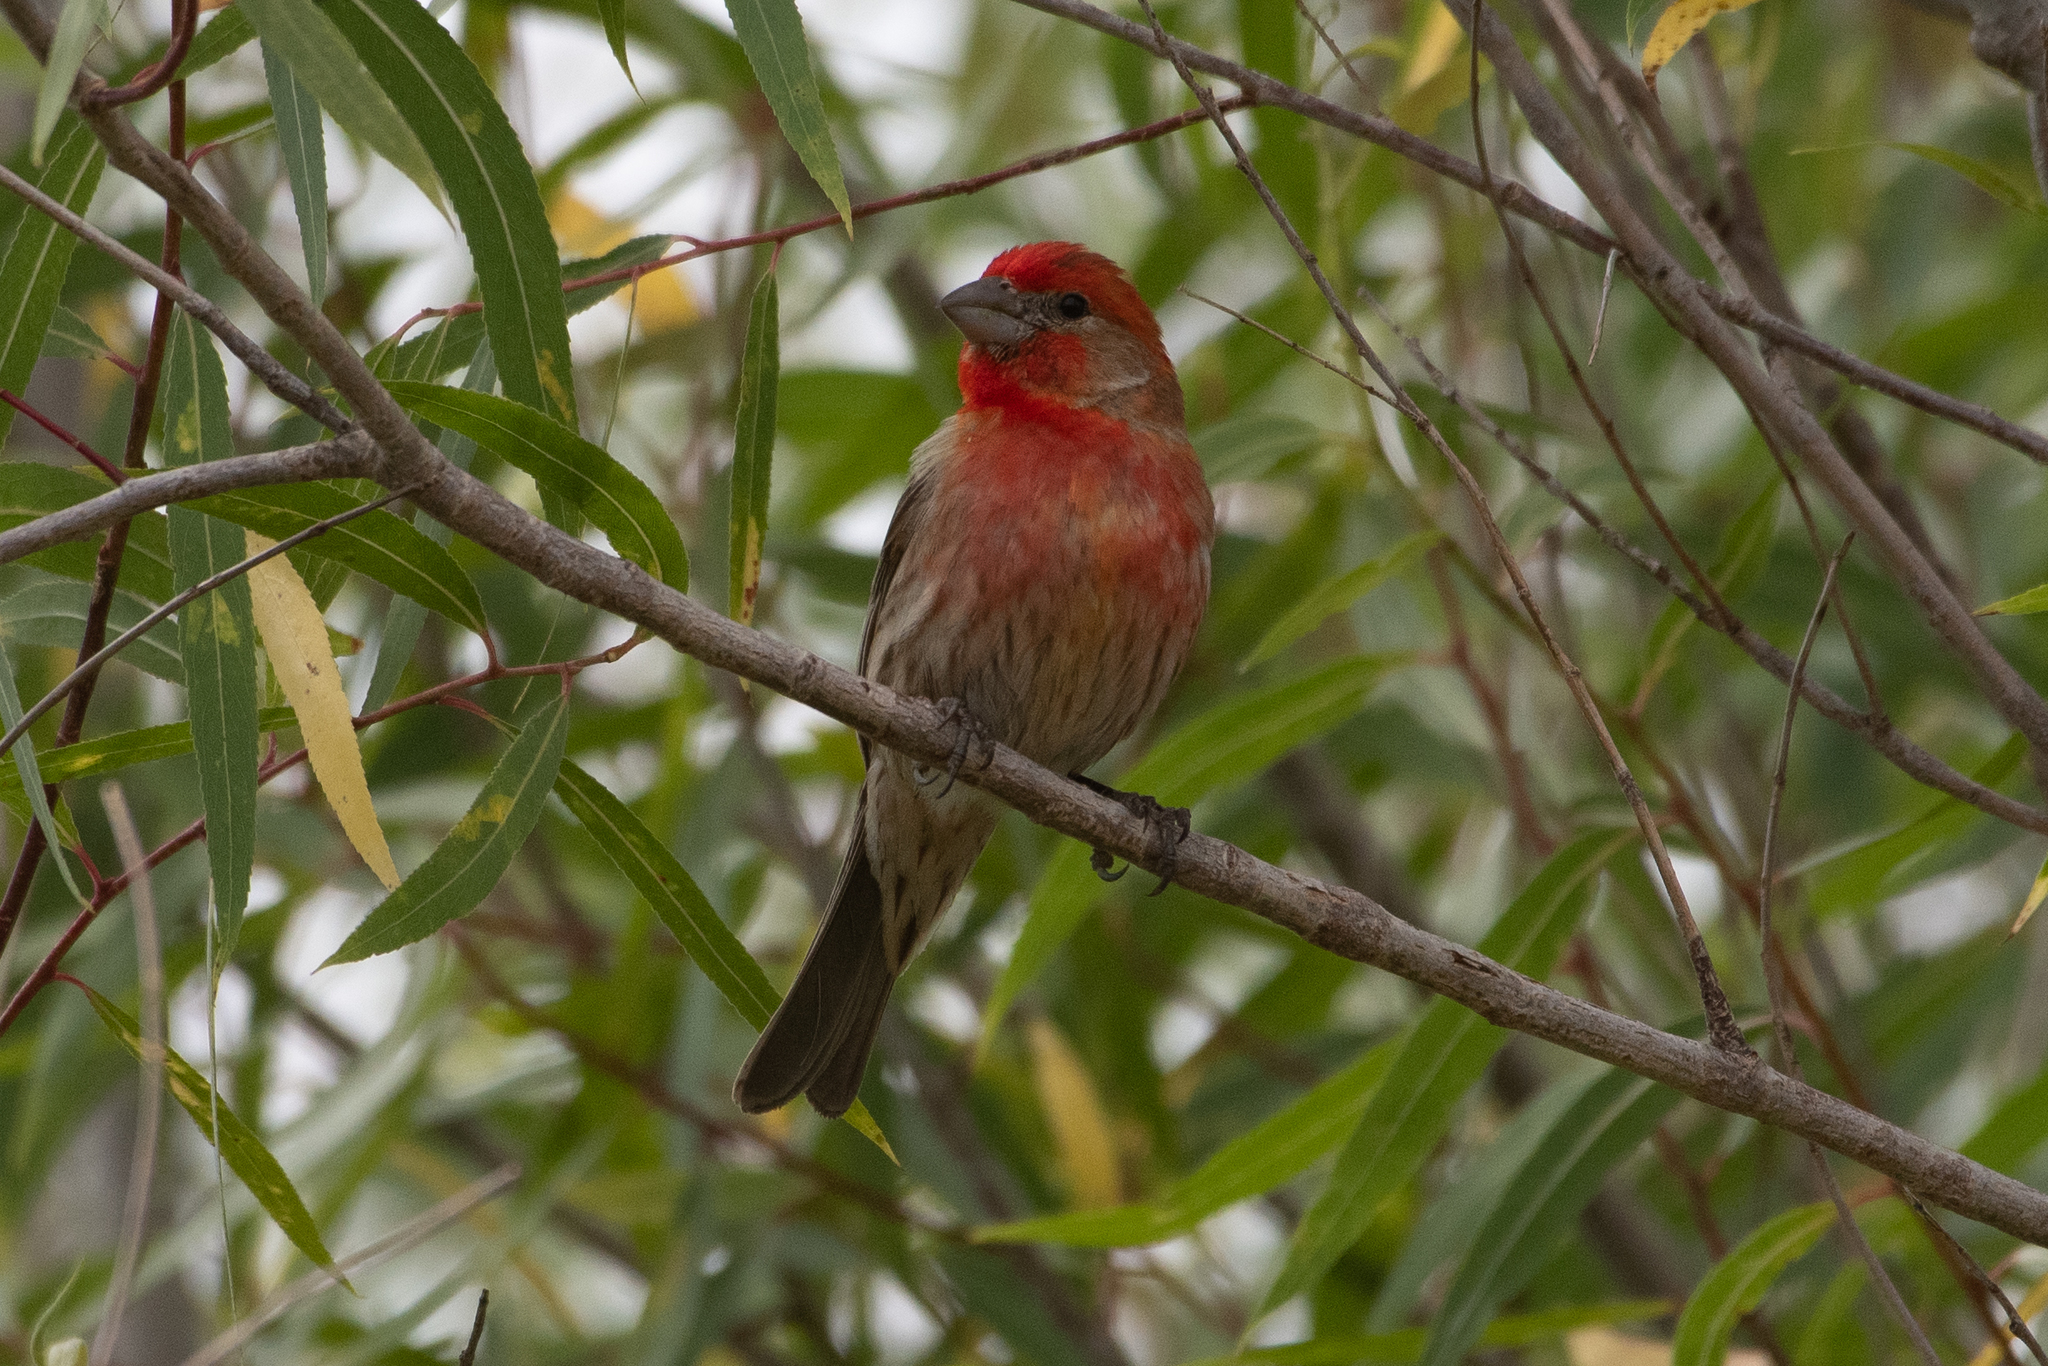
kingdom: Animalia
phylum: Chordata
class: Aves
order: Passeriformes
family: Fringillidae
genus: Haemorhous
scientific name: Haemorhous mexicanus
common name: House finch
